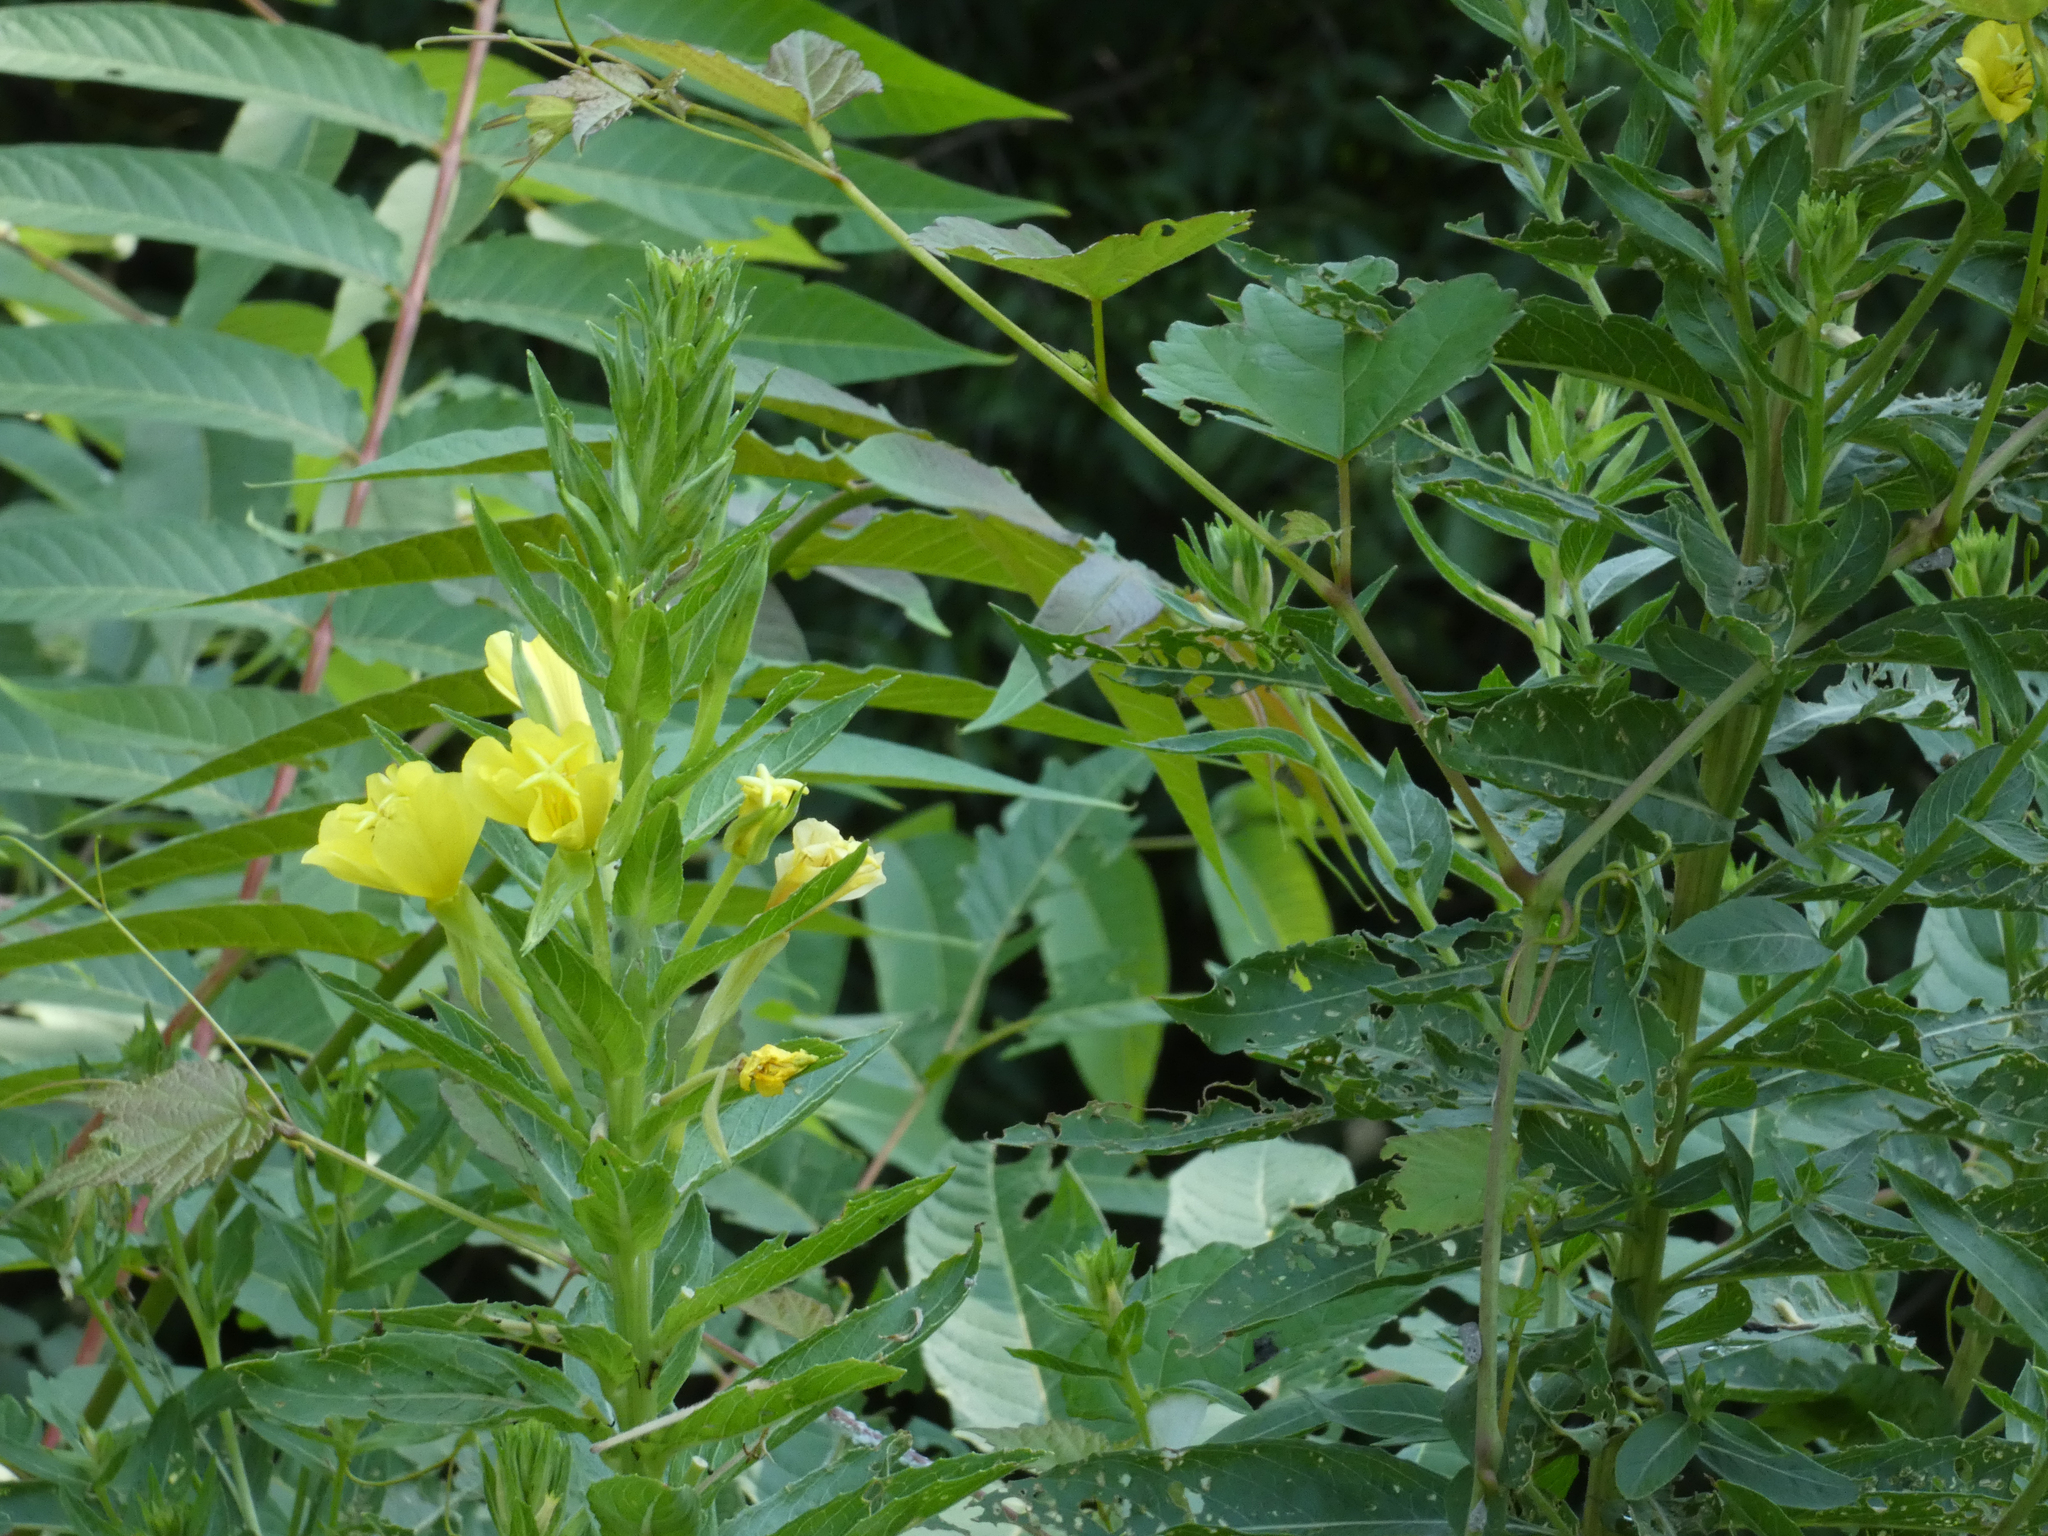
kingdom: Plantae
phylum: Tracheophyta
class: Magnoliopsida
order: Myrtales
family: Onagraceae
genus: Oenothera
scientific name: Oenothera biennis
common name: Common evening-primrose
